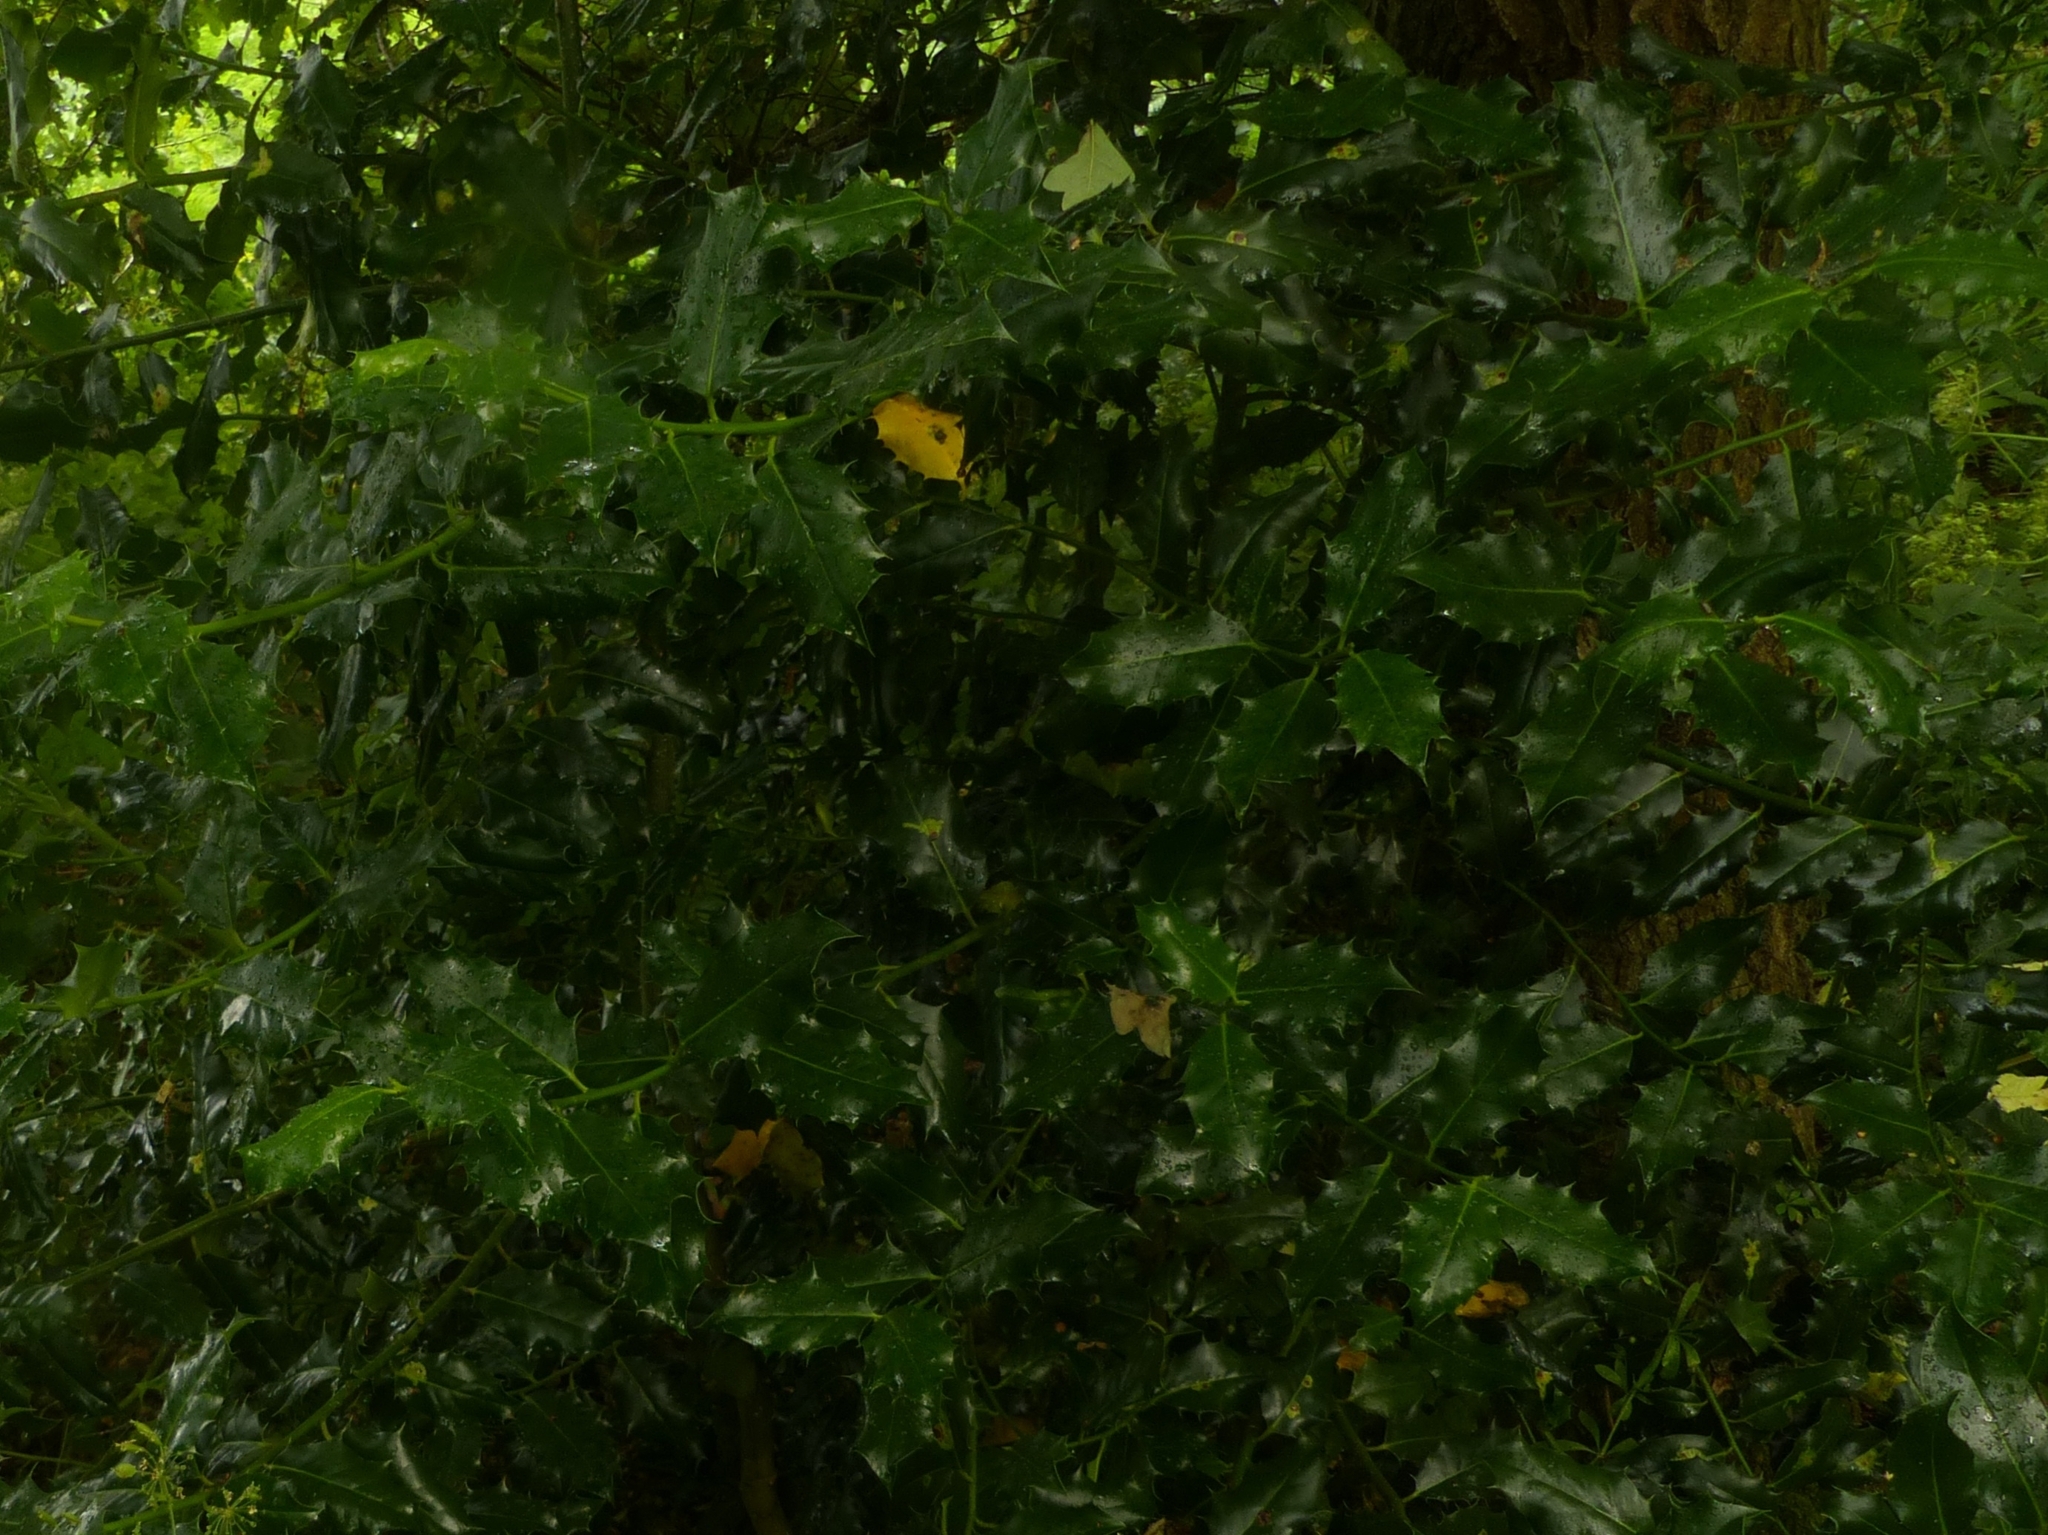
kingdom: Plantae
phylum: Tracheophyta
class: Magnoliopsida
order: Aquifoliales
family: Aquifoliaceae
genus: Ilex
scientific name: Ilex aquifolium
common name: English holly
